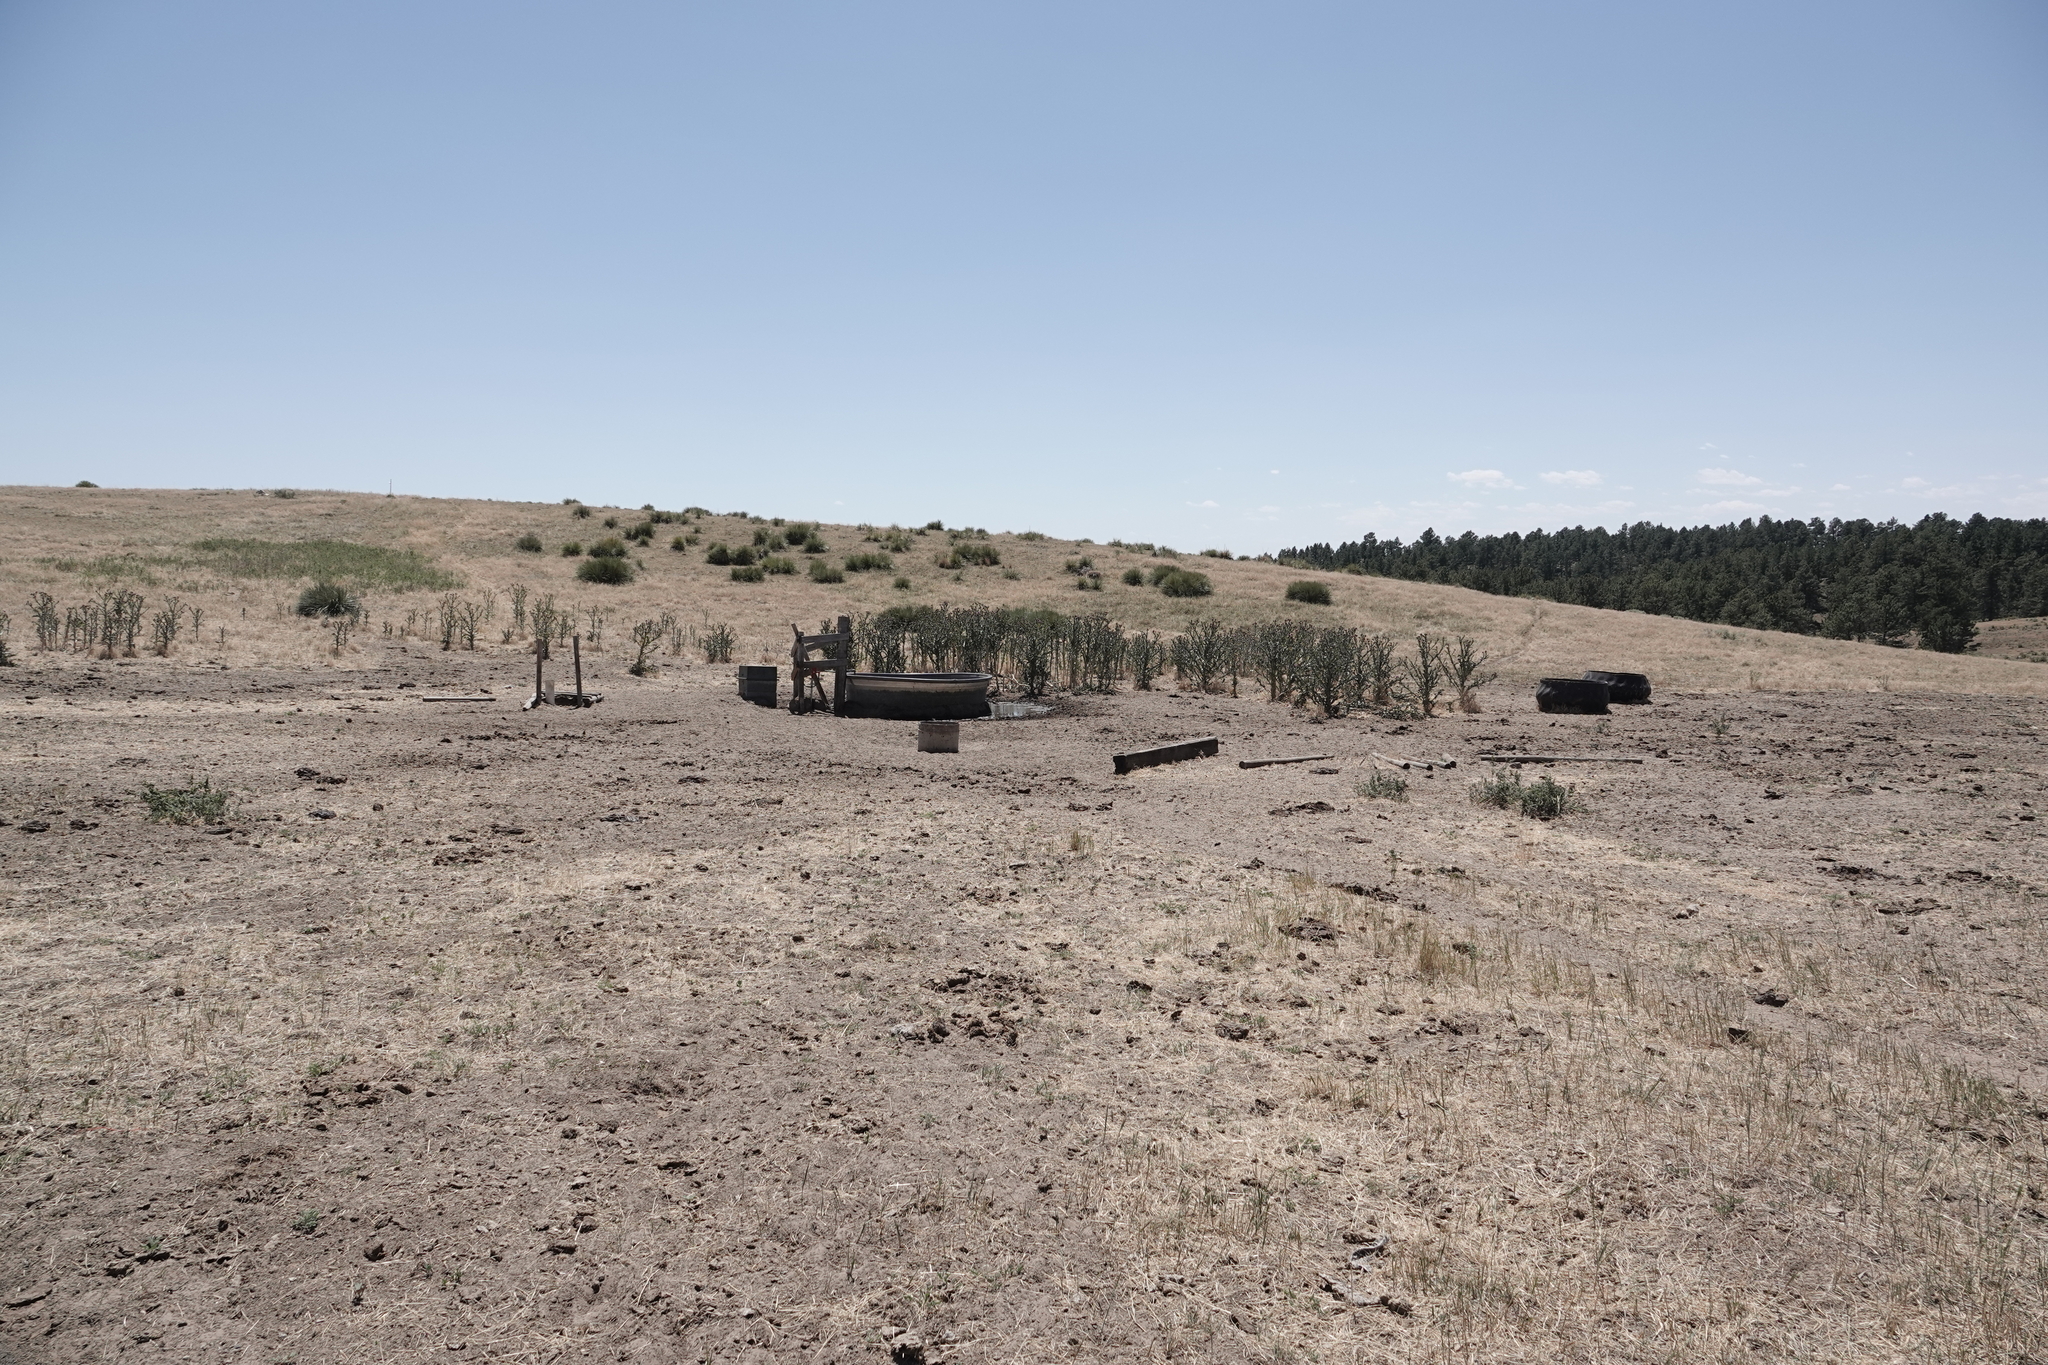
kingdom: Plantae
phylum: Tracheophyta
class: Magnoliopsida
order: Asterales
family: Asteraceae
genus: Onopordum
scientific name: Onopordum acanthium
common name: Scotch thistle
